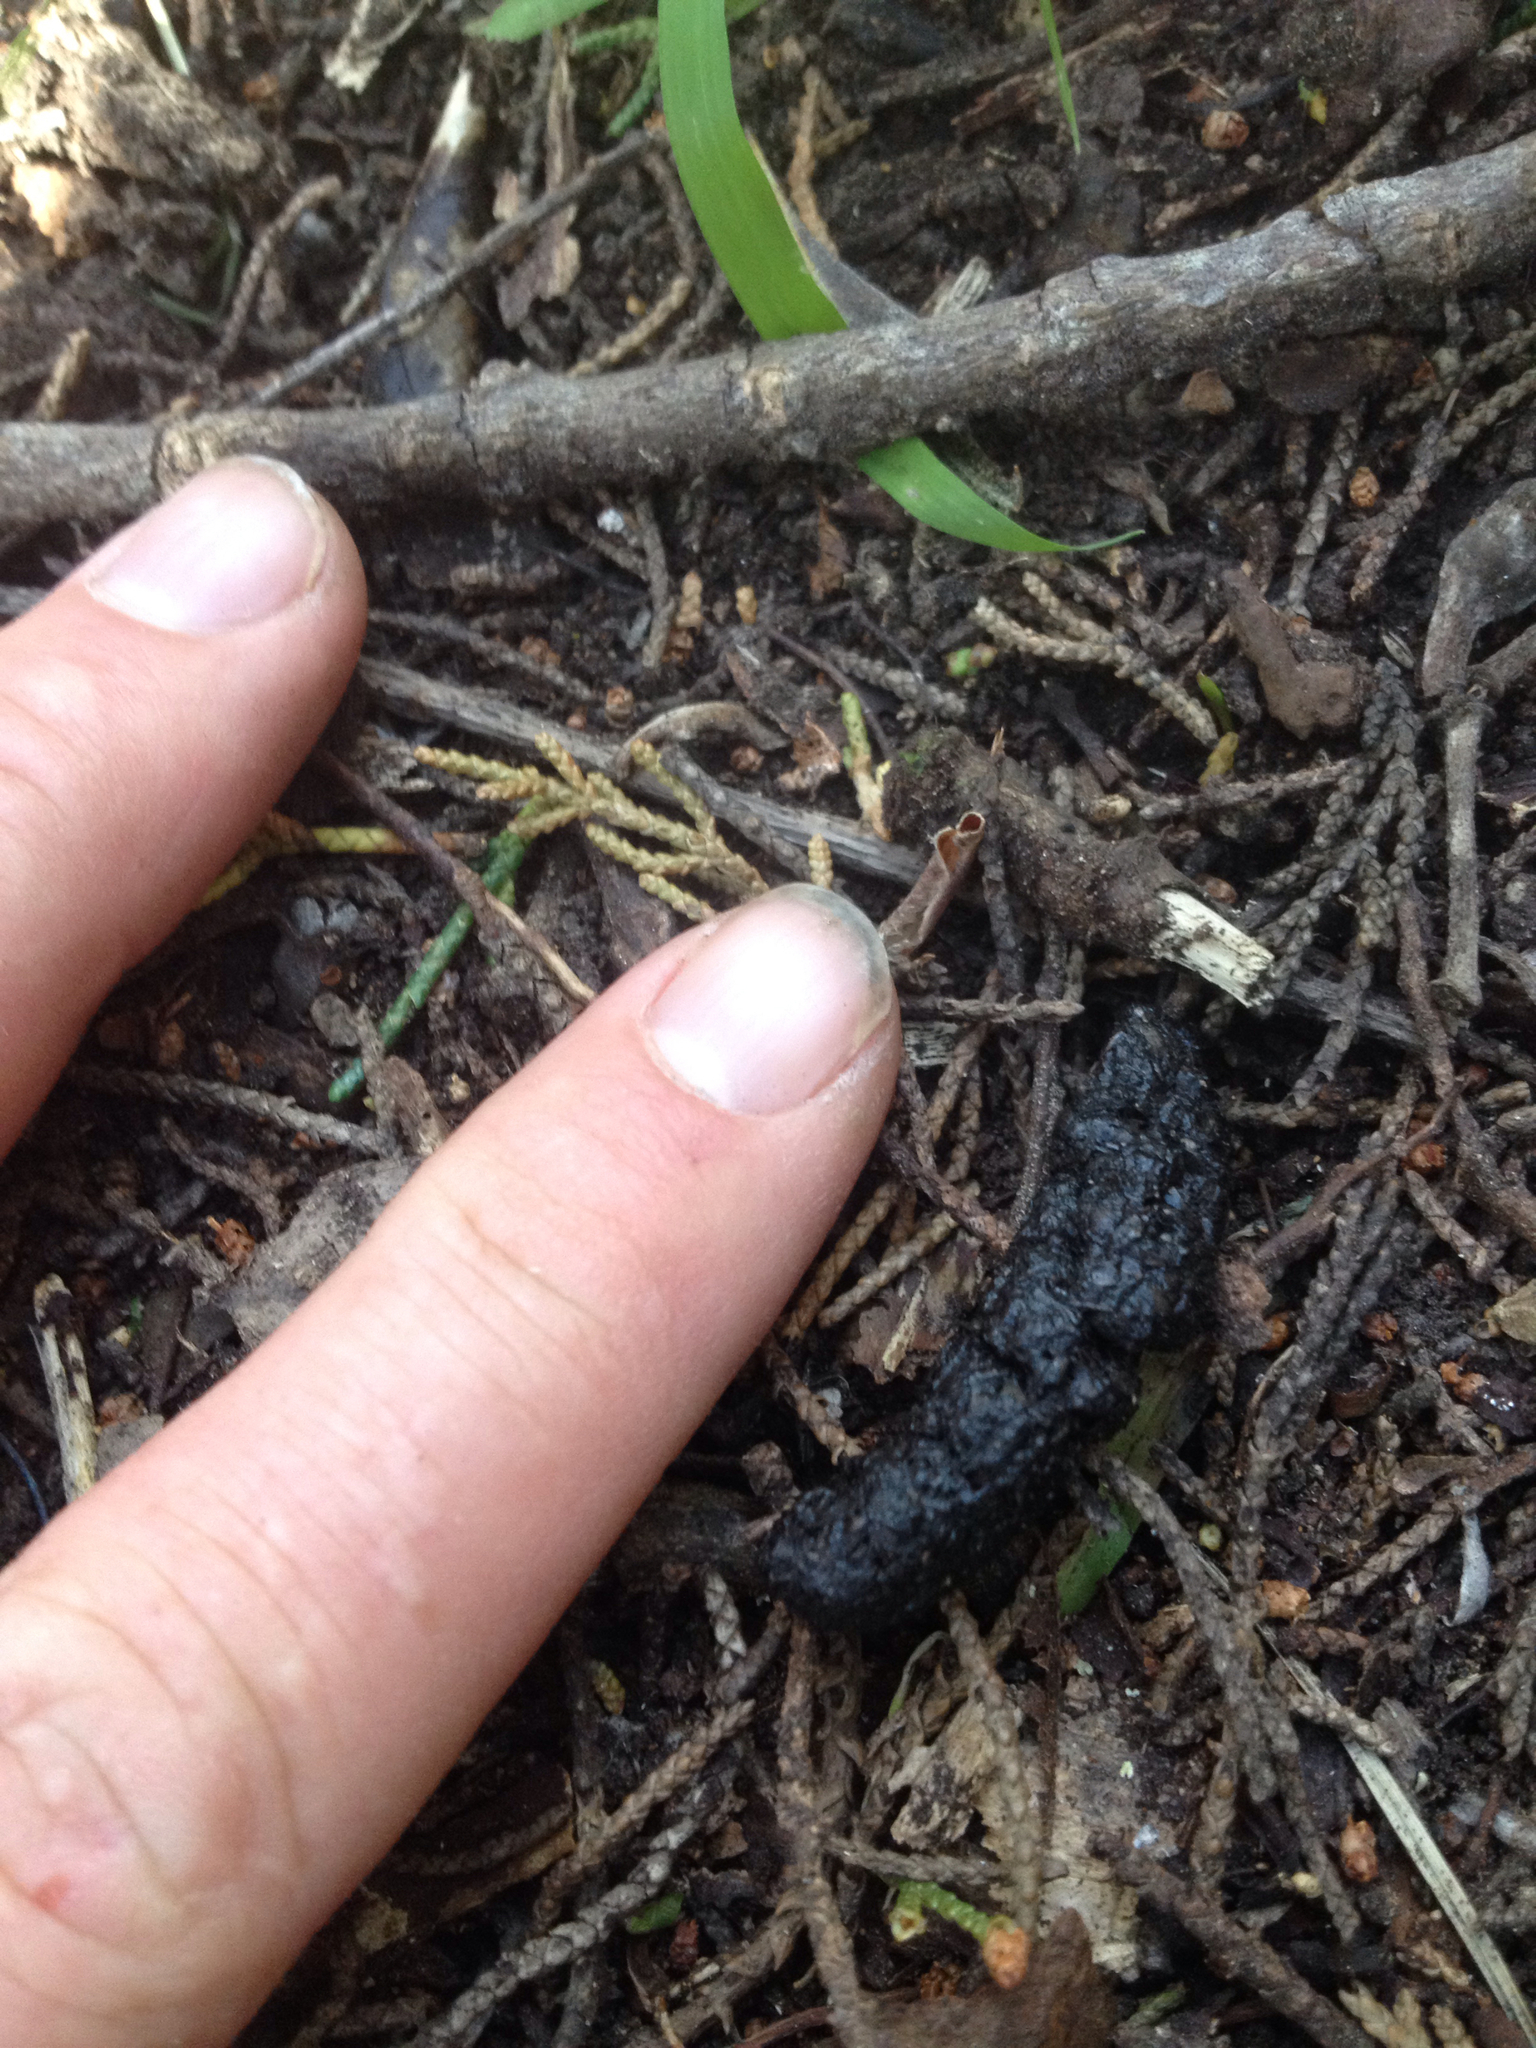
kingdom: Animalia
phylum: Chordata
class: Mammalia
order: Erinaceomorpha
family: Erinaceidae
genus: Erinaceus
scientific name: Erinaceus europaeus
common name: West european hedgehog
